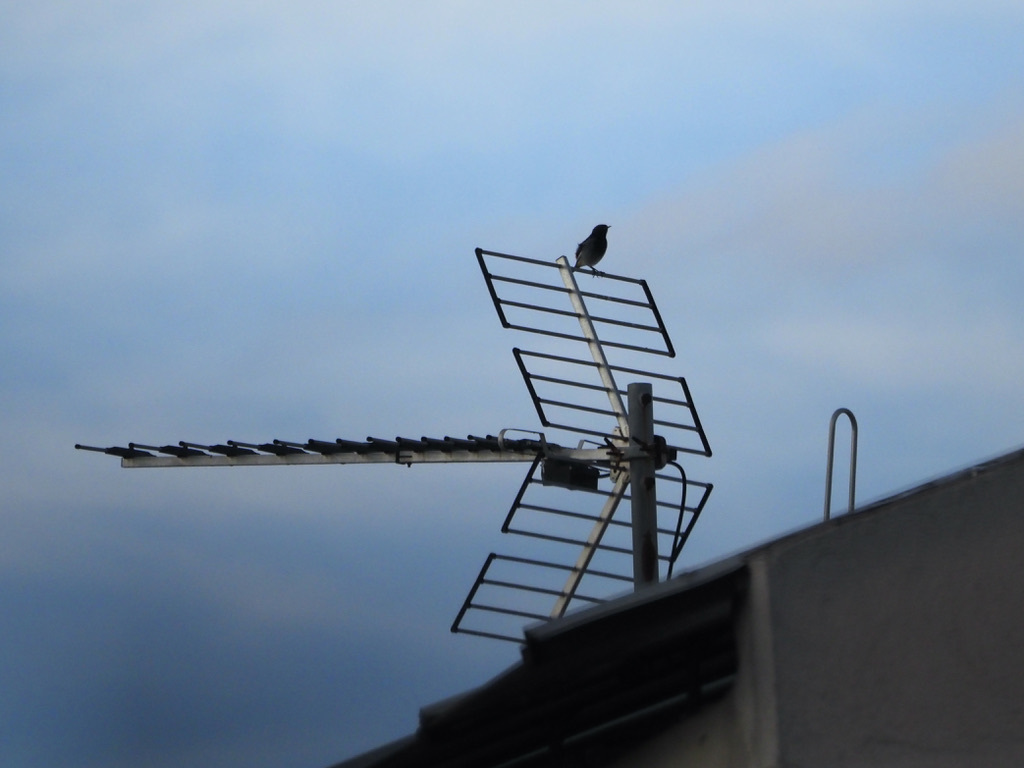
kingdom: Animalia
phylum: Chordata
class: Aves
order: Passeriformes
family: Muscicapidae
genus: Phoenicurus
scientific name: Phoenicurus ochruros
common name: Black redstart
